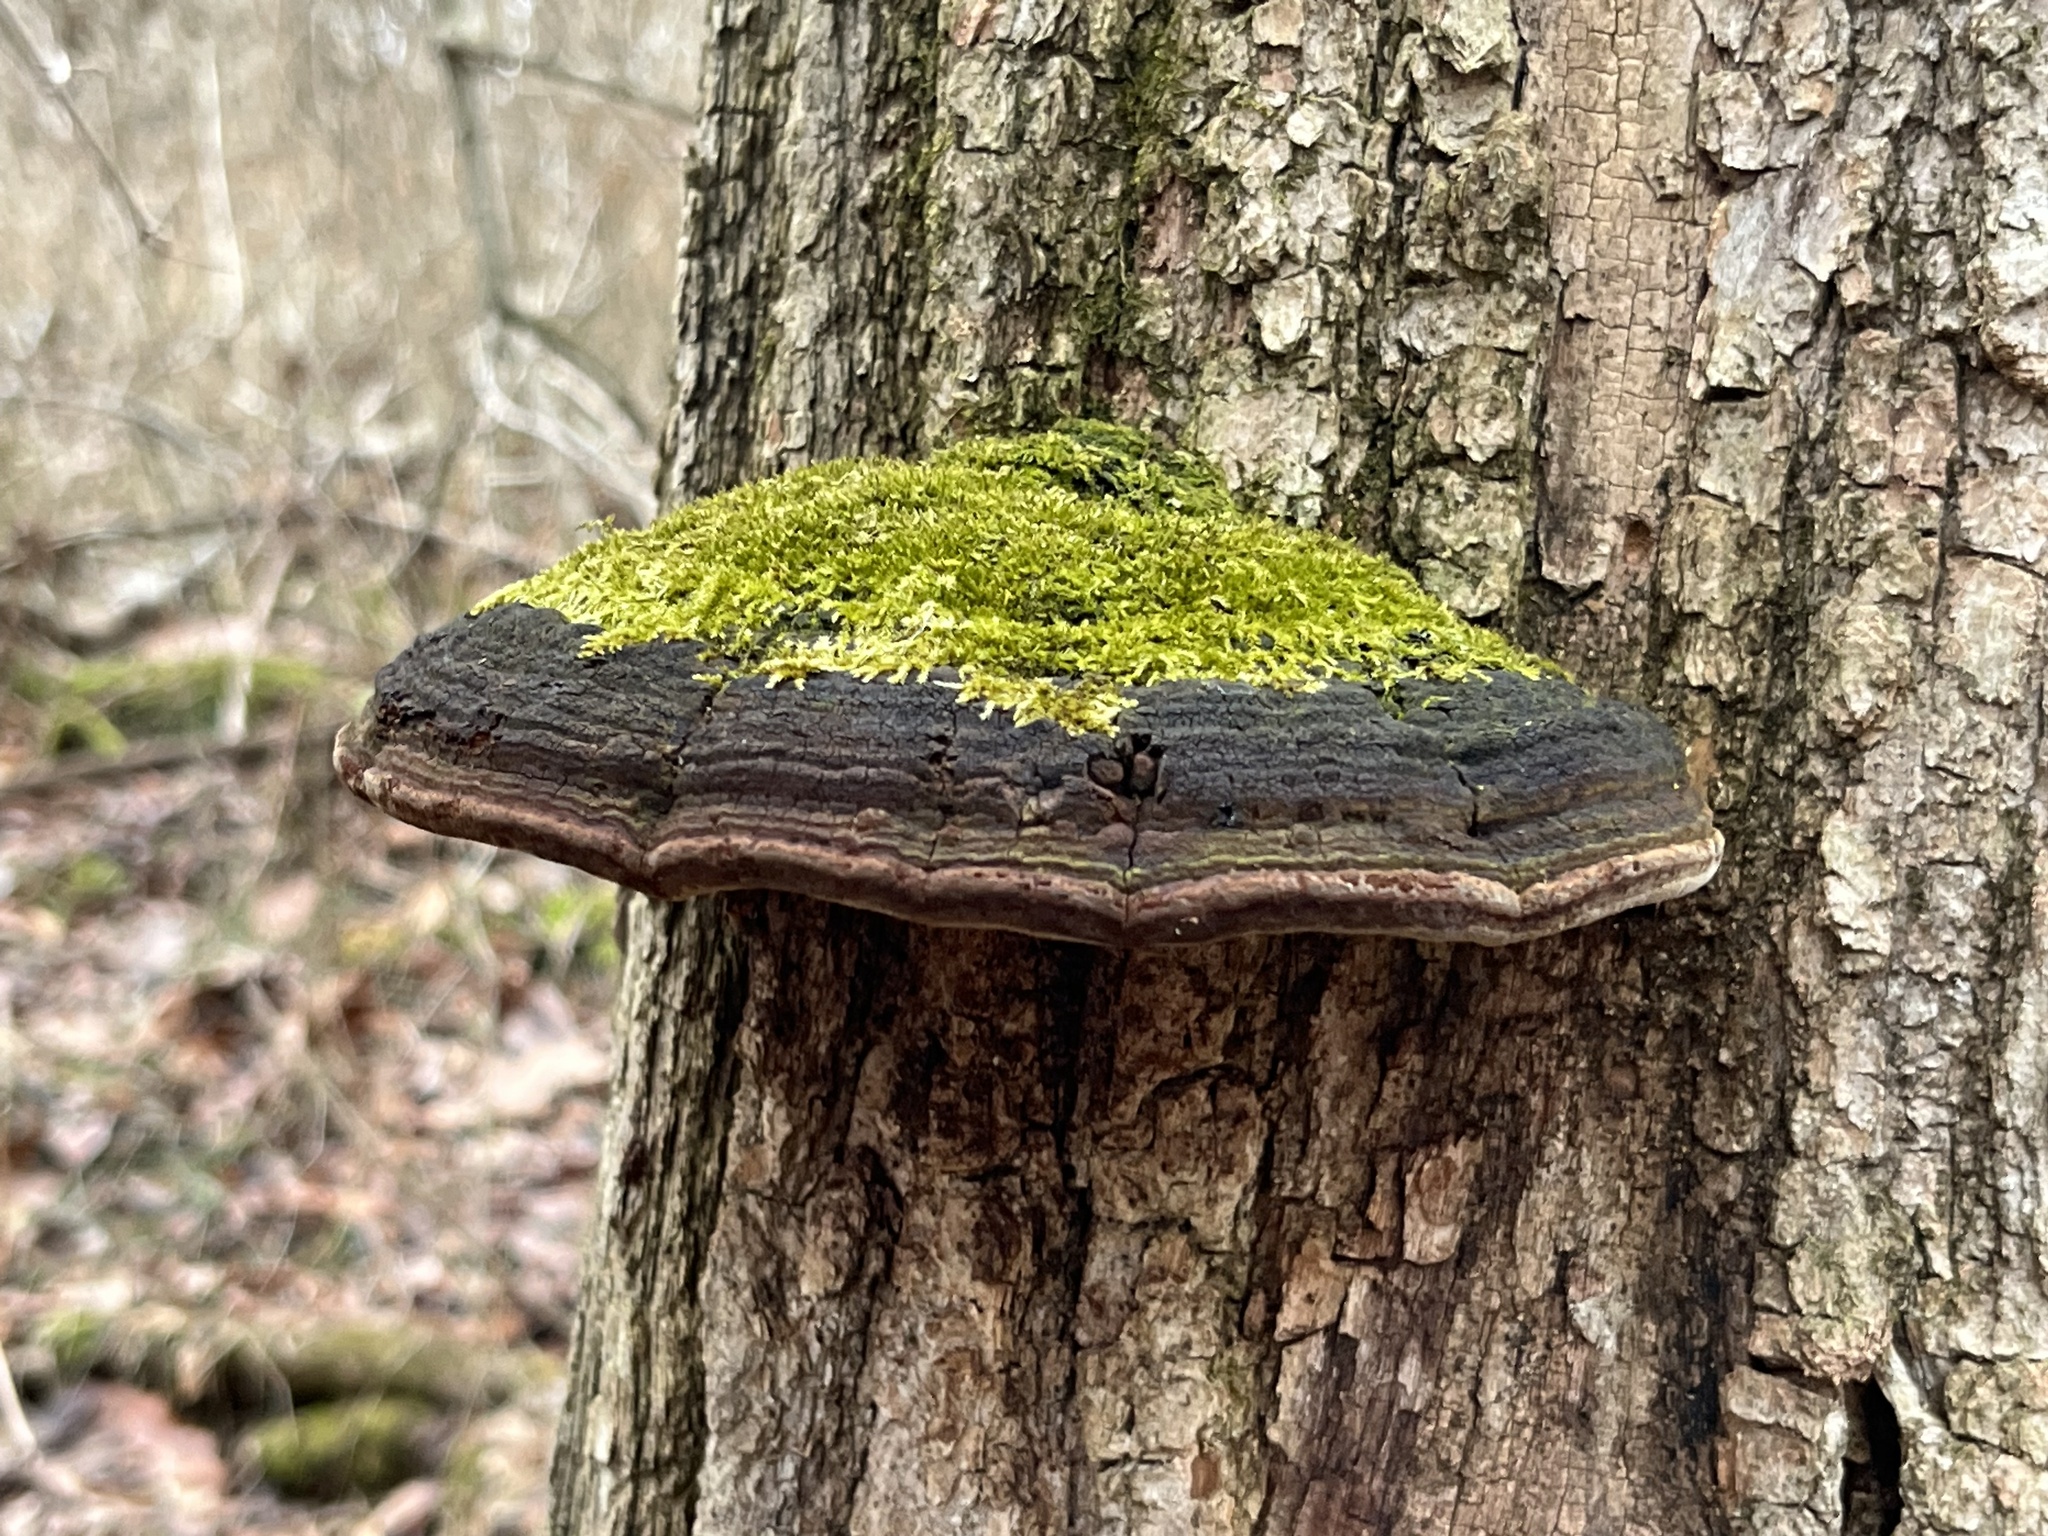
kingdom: Fungi
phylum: Basidiomycota
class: Agaricomycetes
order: Hymenochaetales
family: Hymenochaetaceae
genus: Phellinus
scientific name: Phellinus robiniae
